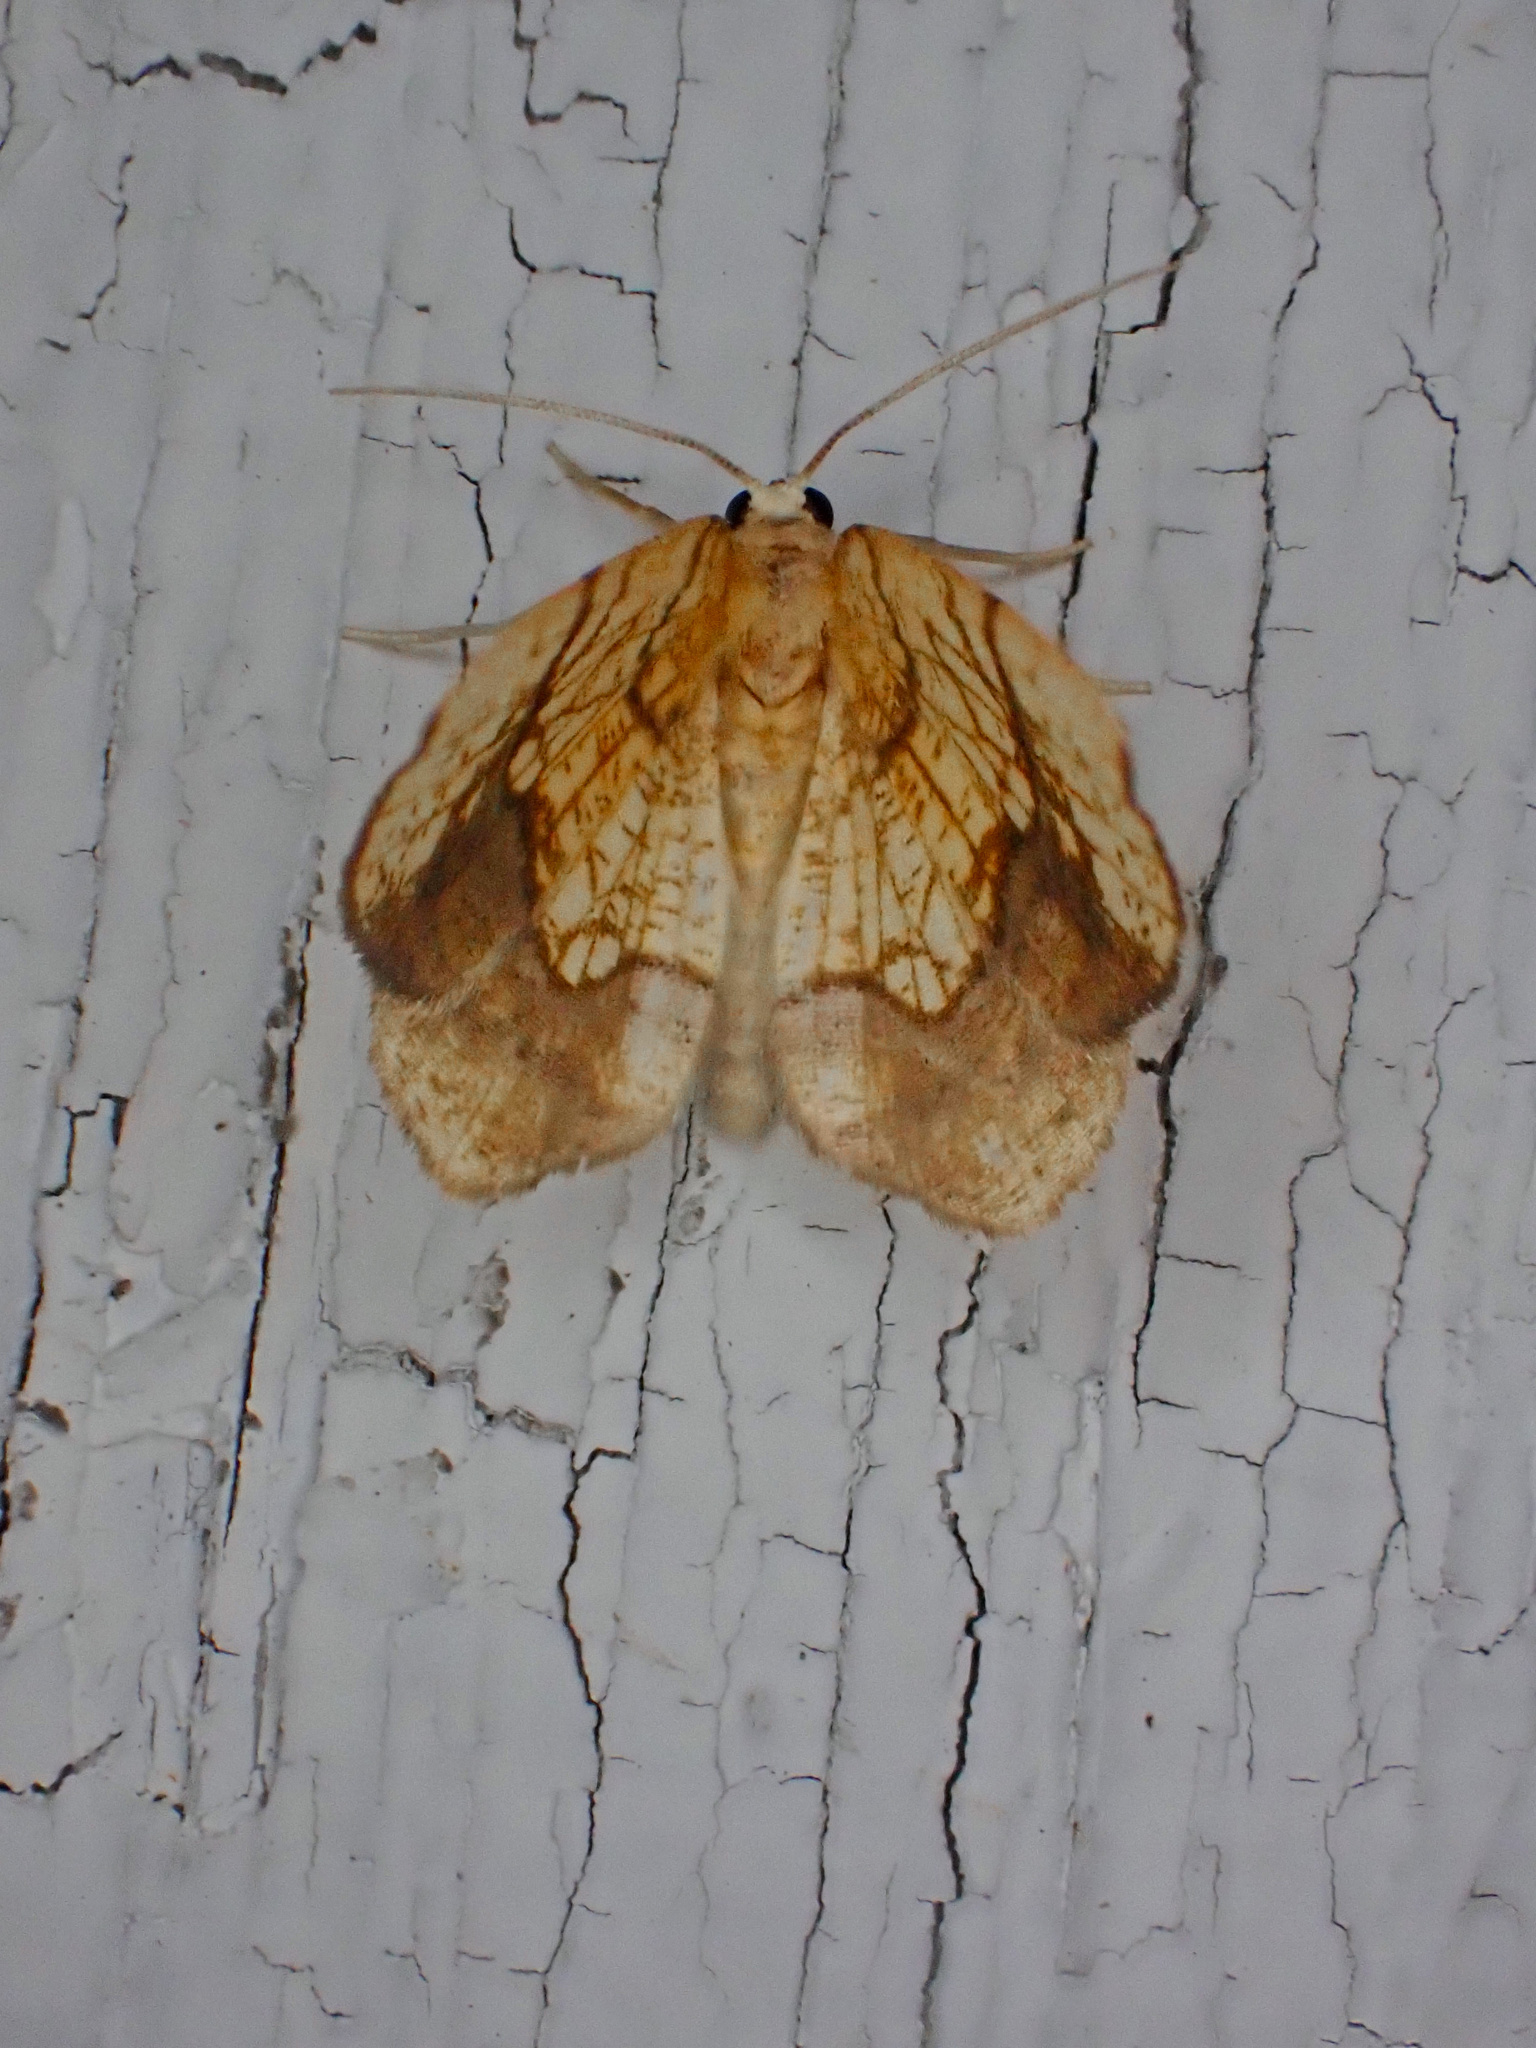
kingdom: Animalia
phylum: Arthropoda
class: Insecta
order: Lepidoptera
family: Geometridae
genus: Nematocampa
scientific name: Nematocampa resistaria
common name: Horned spanworm moth
